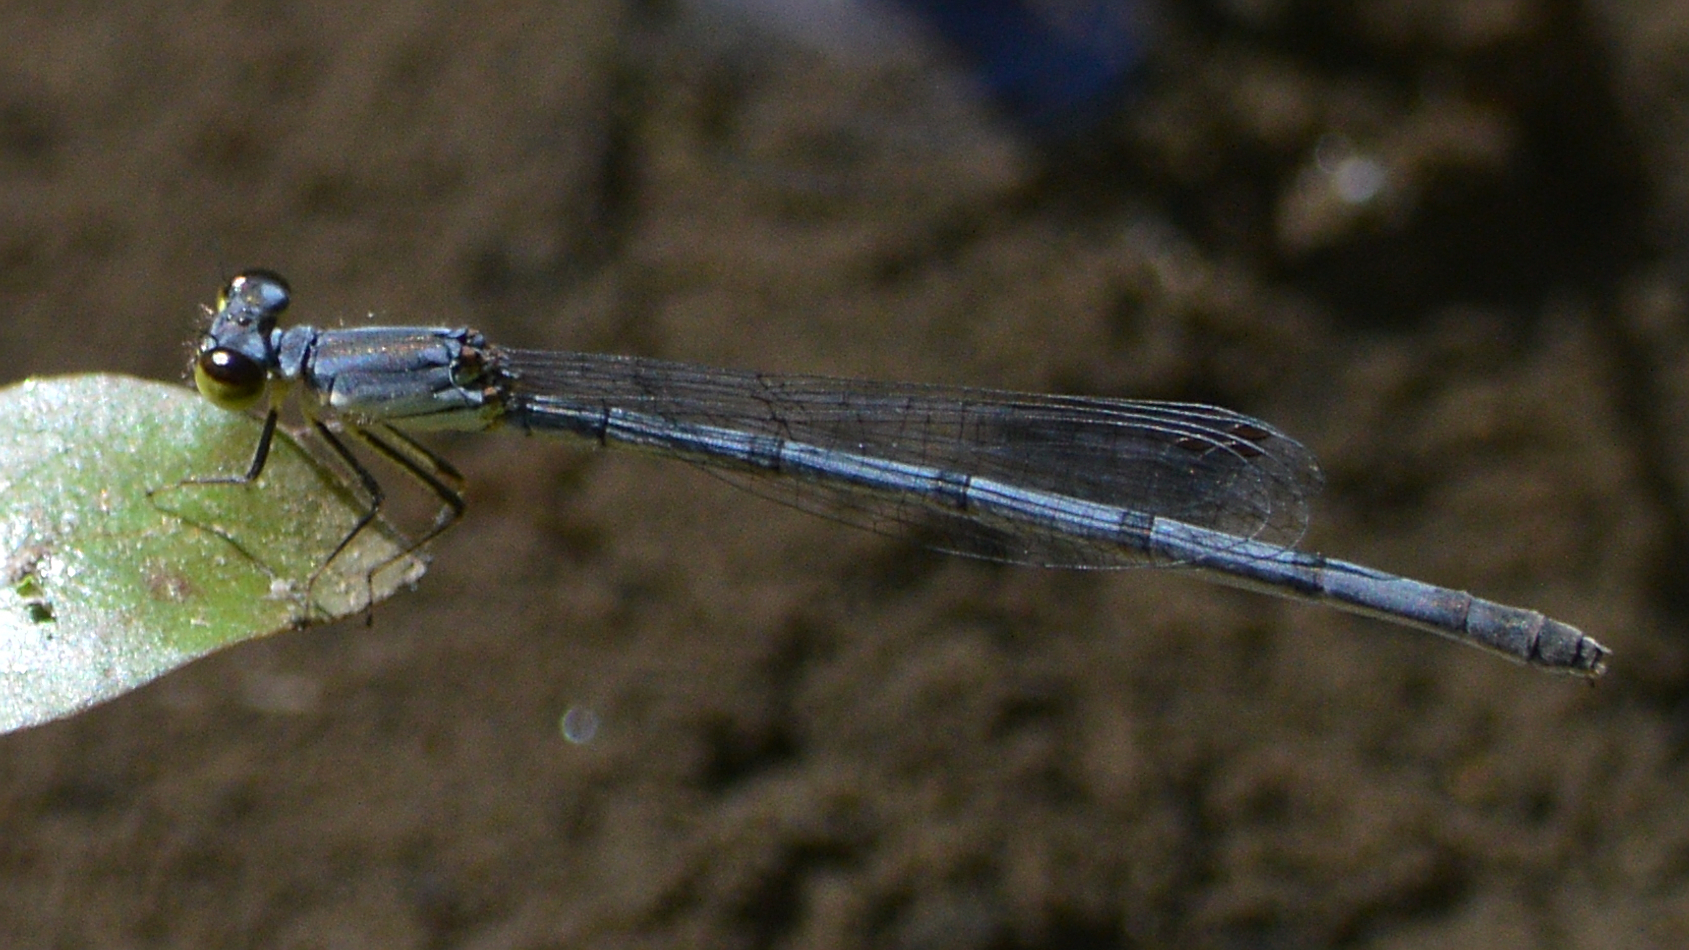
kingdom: Animalia
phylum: Arthropoda
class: Insecta
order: Odonata
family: Coenagrionidae
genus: Ischnura
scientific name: Ischnura posita
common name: Fragile forktail
